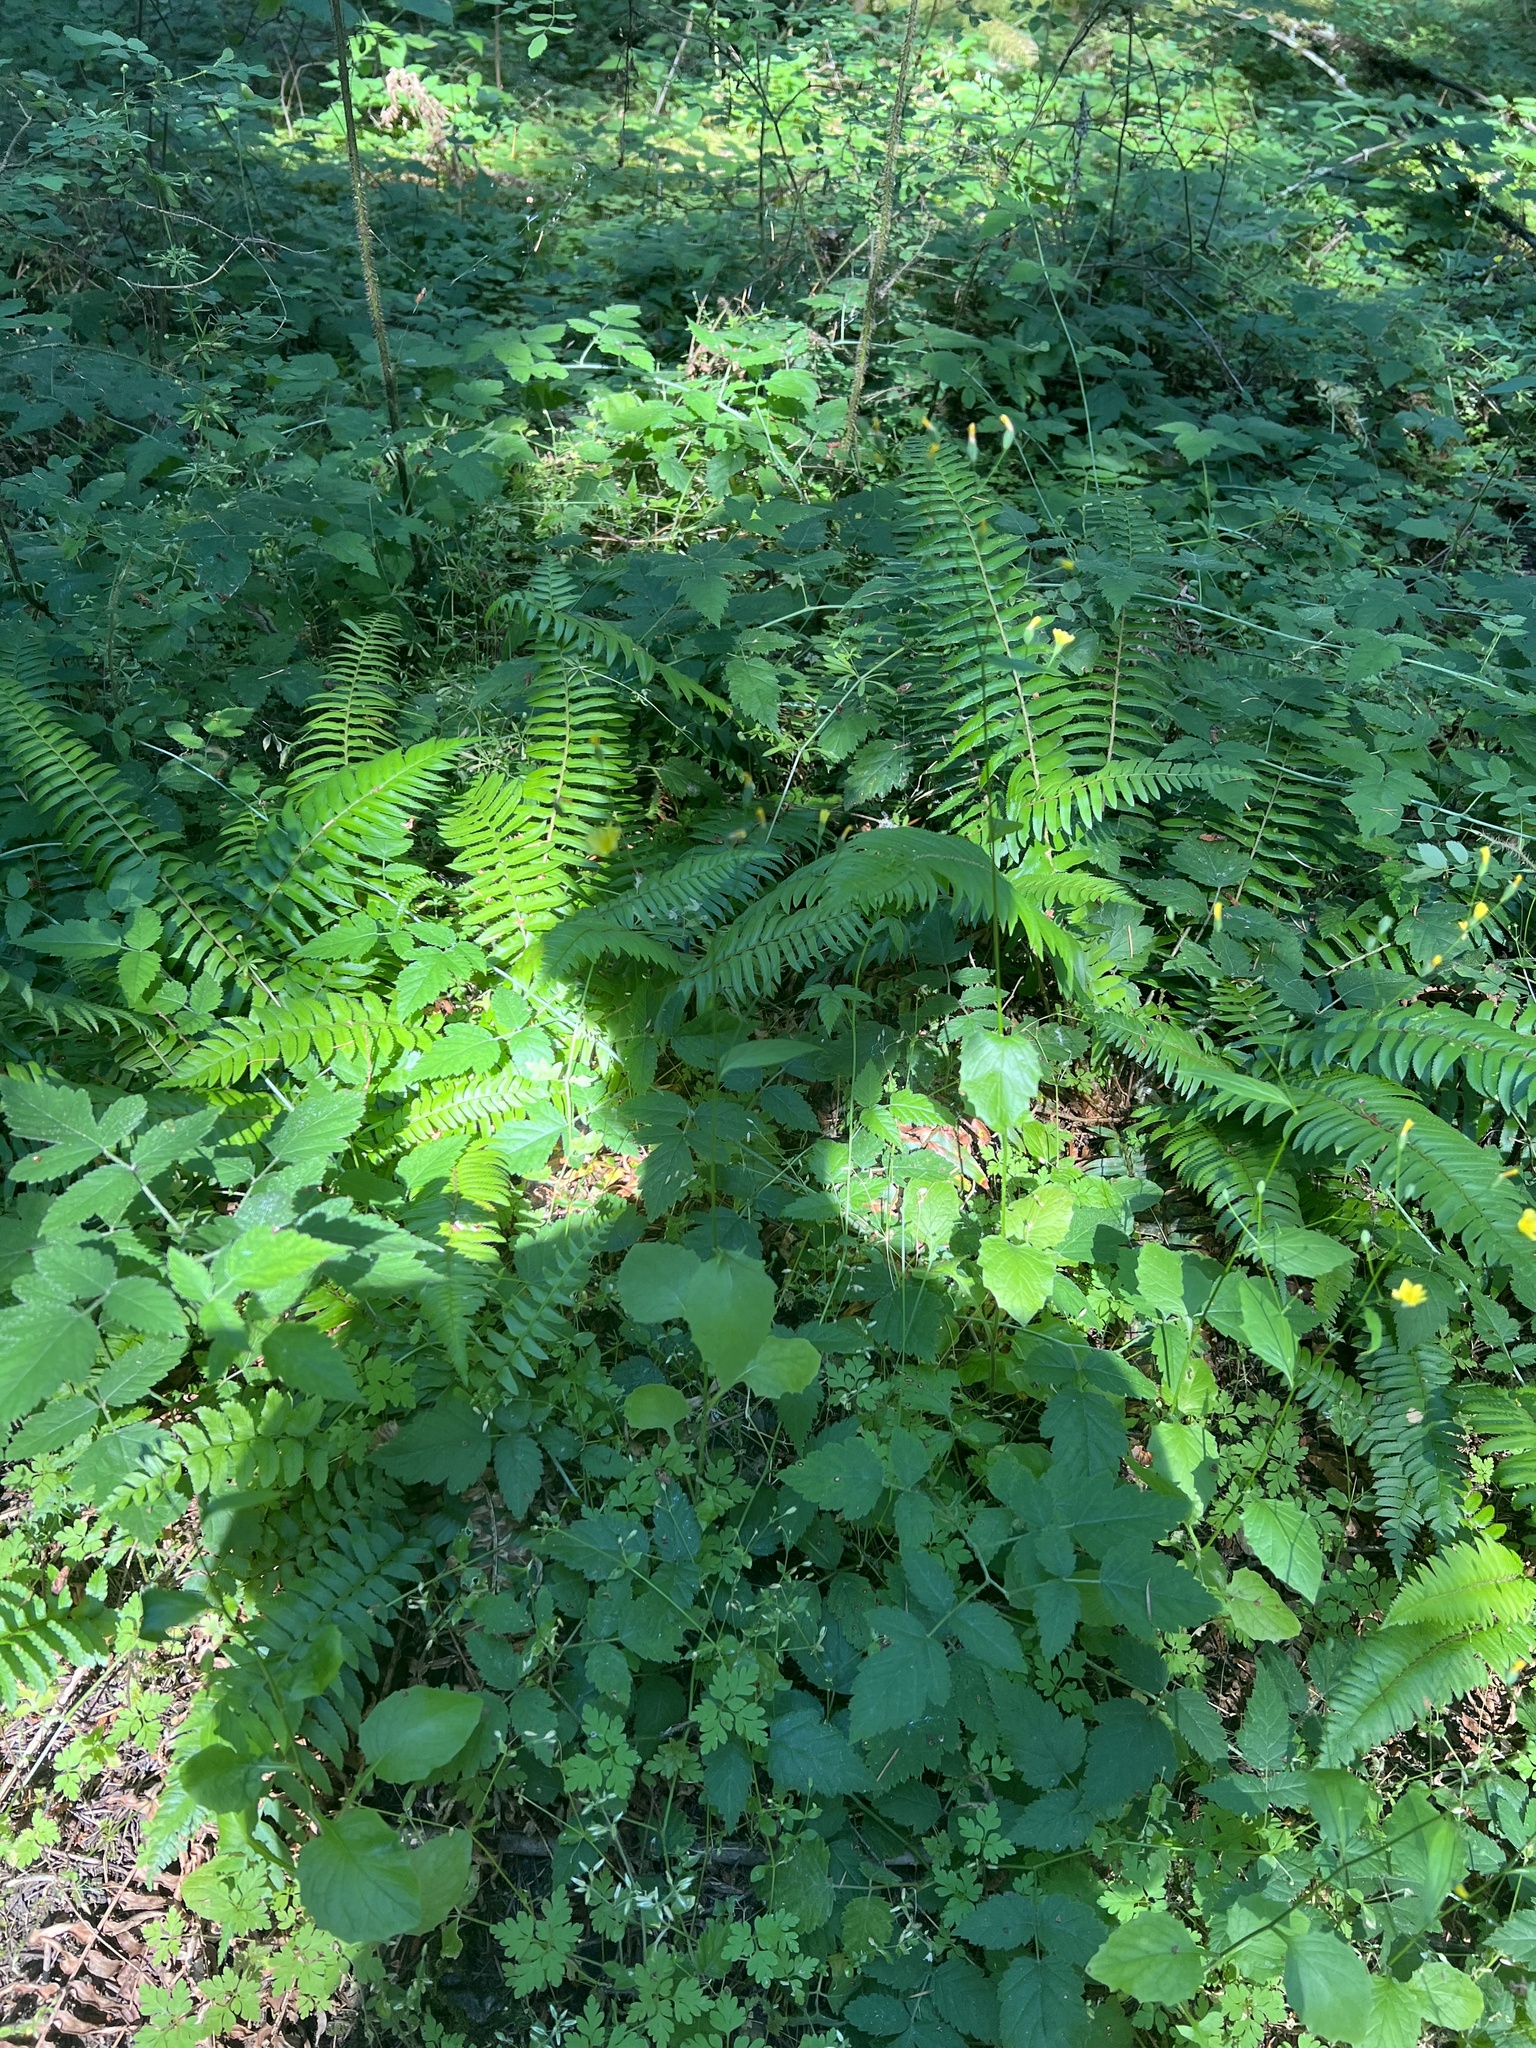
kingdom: Plantae
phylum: Tracheophyta
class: Magnoliopsida
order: Asterales
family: Asteraceae
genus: Lapsana
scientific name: Lapsana communis
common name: Nipplewort
